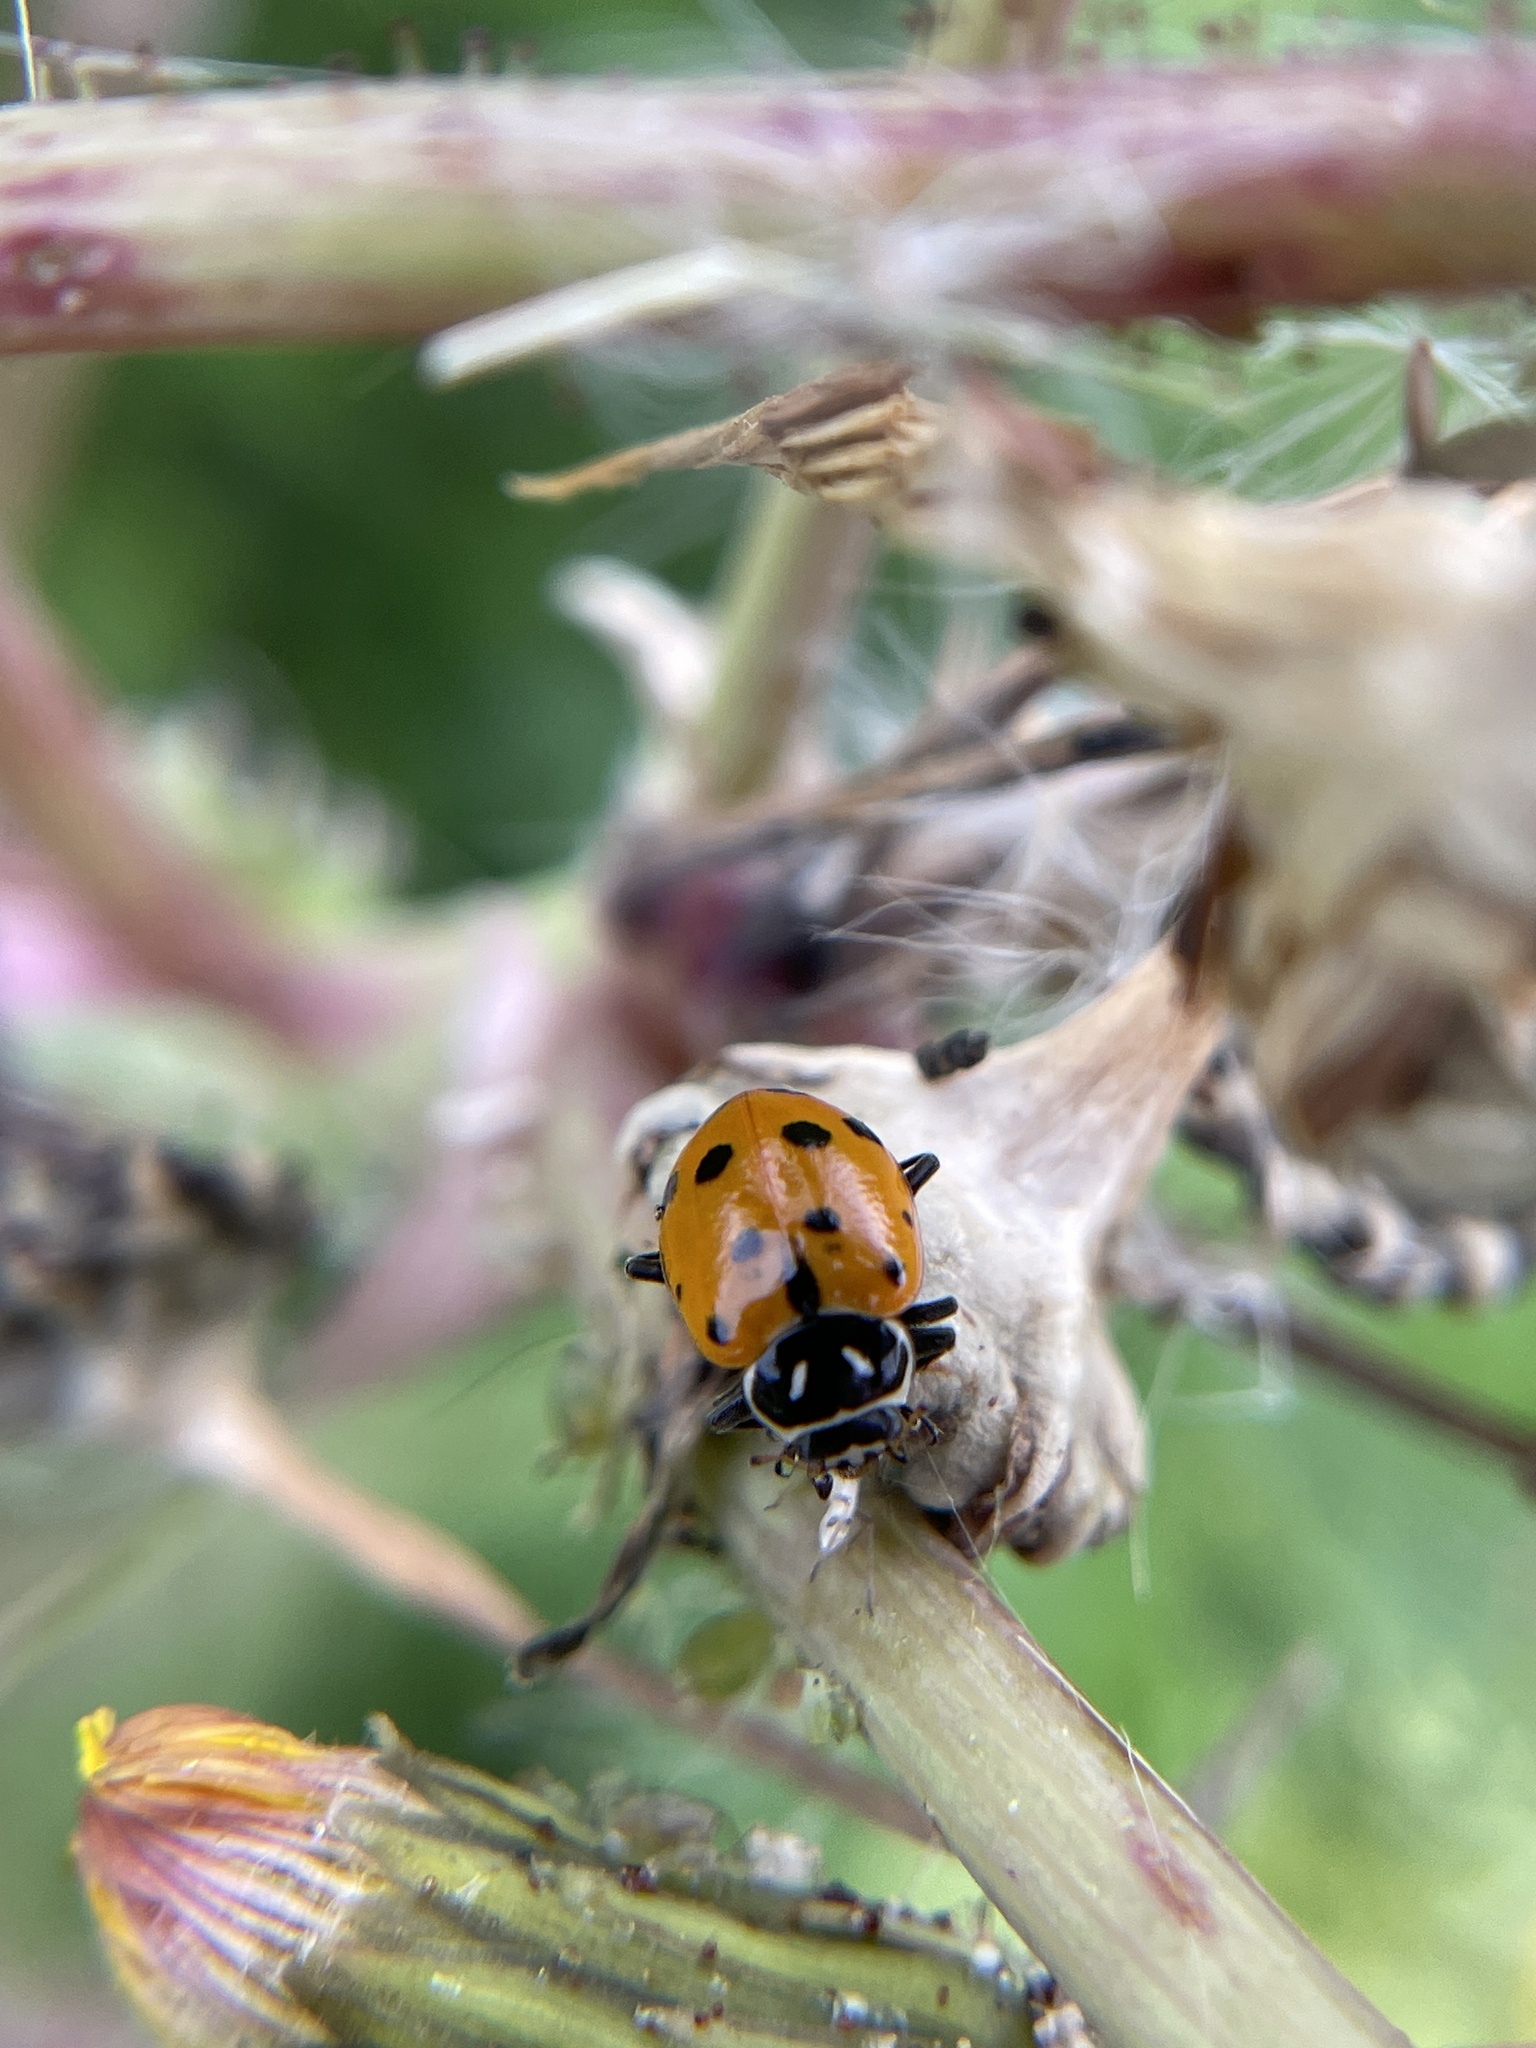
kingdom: Animalia
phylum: Arthropoda
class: Insecta
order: Coleoptera
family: Coccinellidae
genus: Hippodamia
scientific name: Hippodamia convergens
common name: Convergent lady beetle
